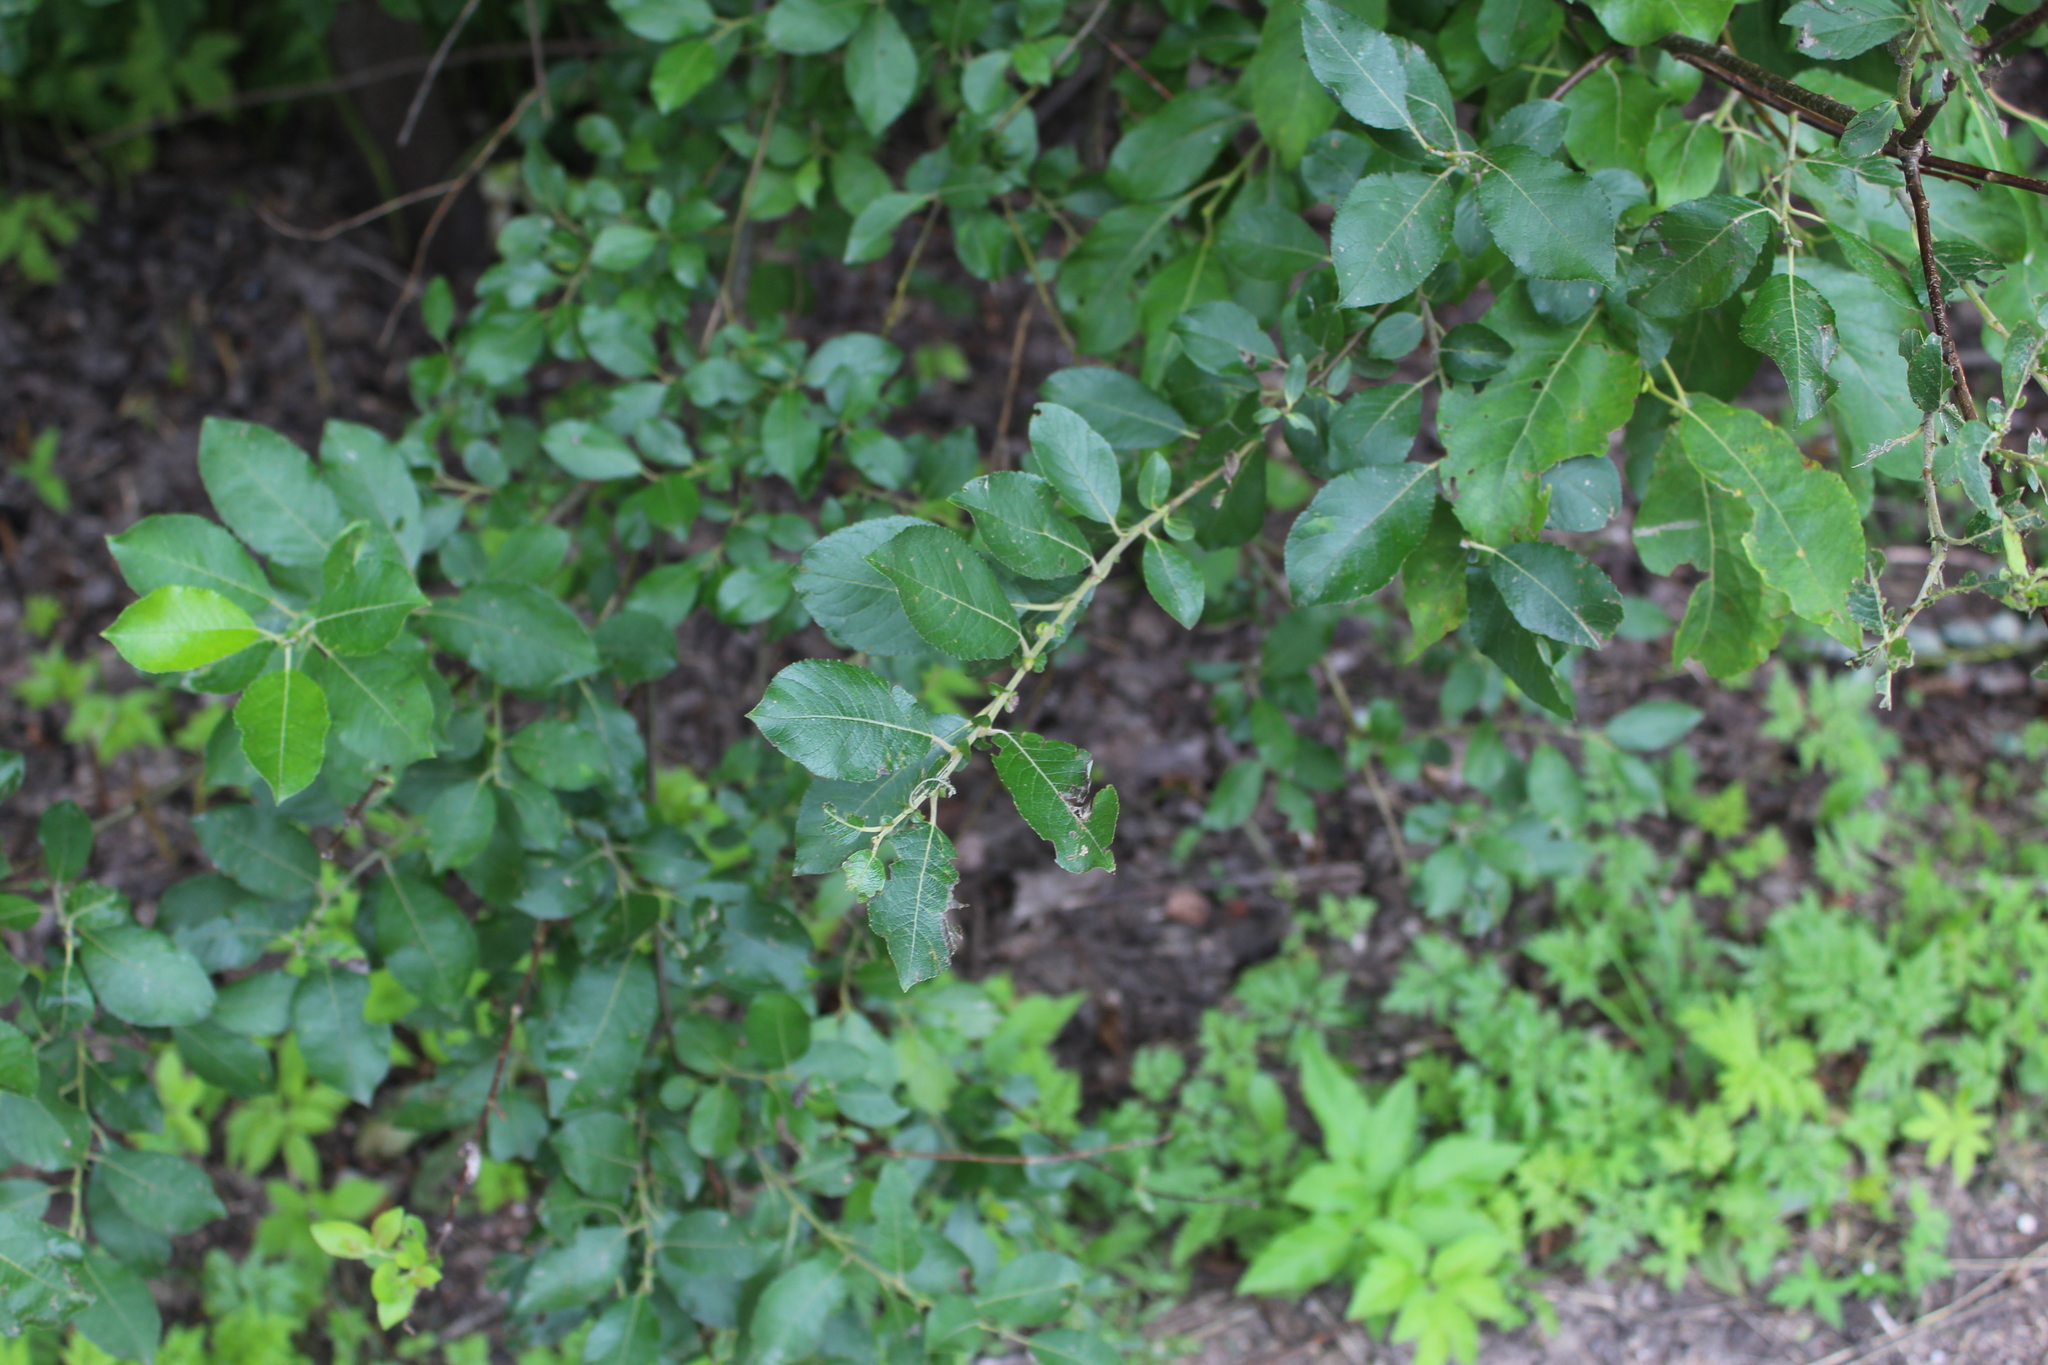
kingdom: Plantae
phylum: Tracheophyta
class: Magnoliopsida
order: Malpighiales
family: Salicaceae
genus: Salix
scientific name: Salix myrsinifolia
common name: Dark-leaved willow
